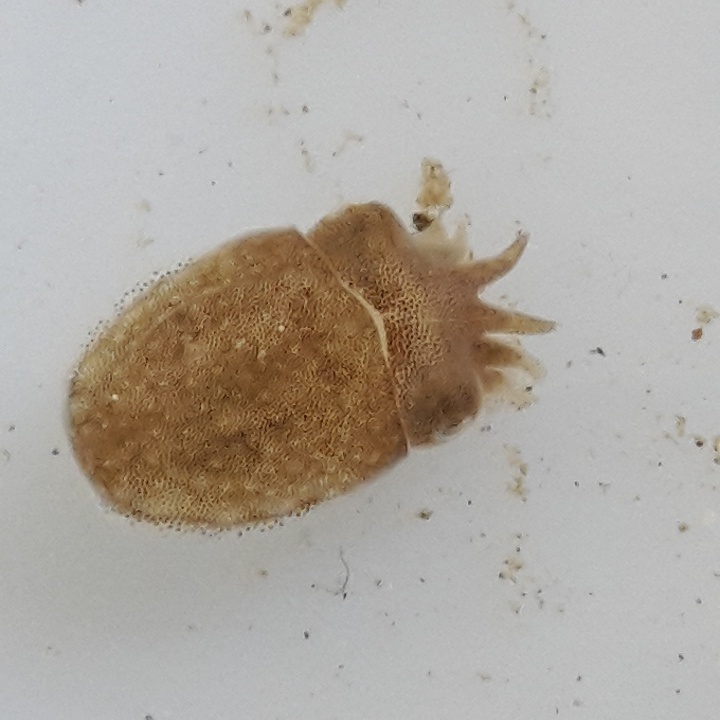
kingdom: Animalia
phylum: Mollusca
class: Cephalopoda
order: Sepiida
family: Sepiidae
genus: Sepia
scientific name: Sepia officinalis
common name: Common cuttlefish
